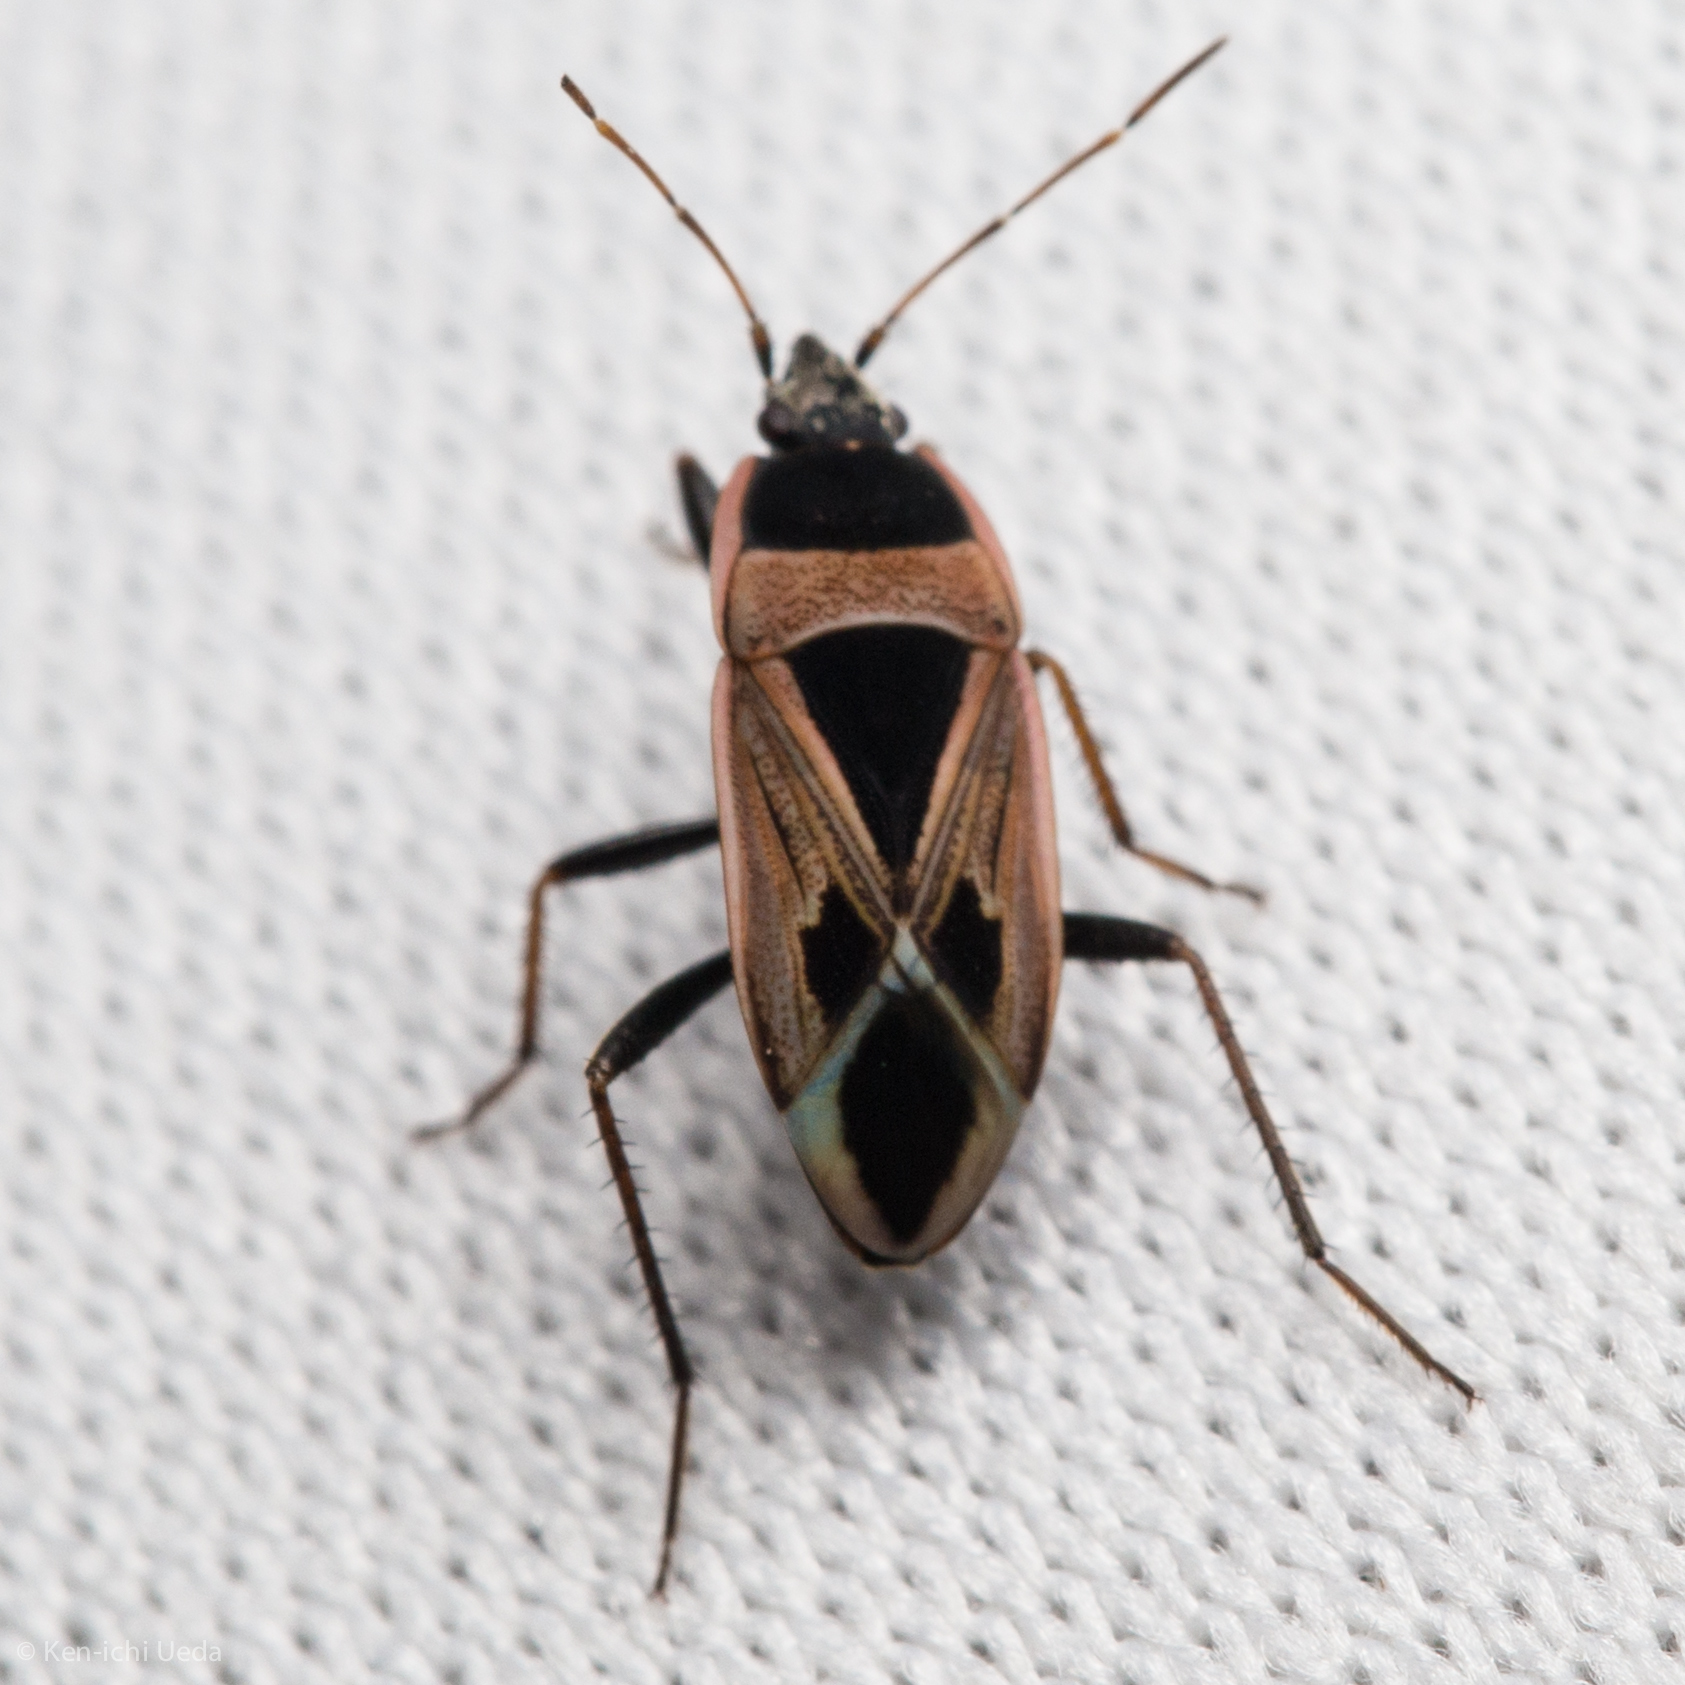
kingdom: Animalia
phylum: Arthropoda
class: Insecta
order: Hemiptera
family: Rhyparochromidae
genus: Xanthochilus
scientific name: Xanthochilus saturnius
